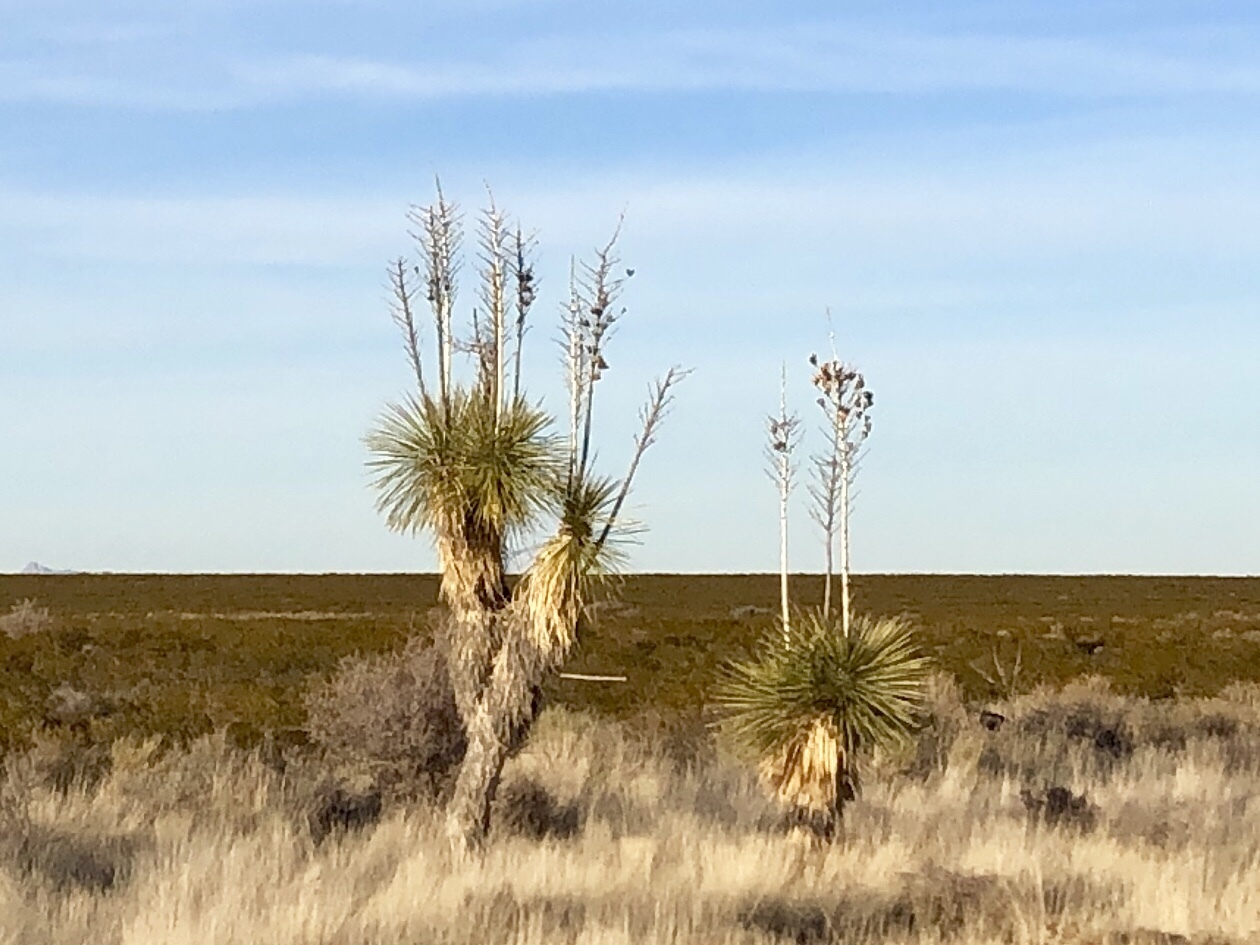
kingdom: Plantae
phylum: Tracheophyta
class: Liliopsida
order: Asparagales
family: Asparagaceae
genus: Yucca
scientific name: Yucca elata
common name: Palmella
